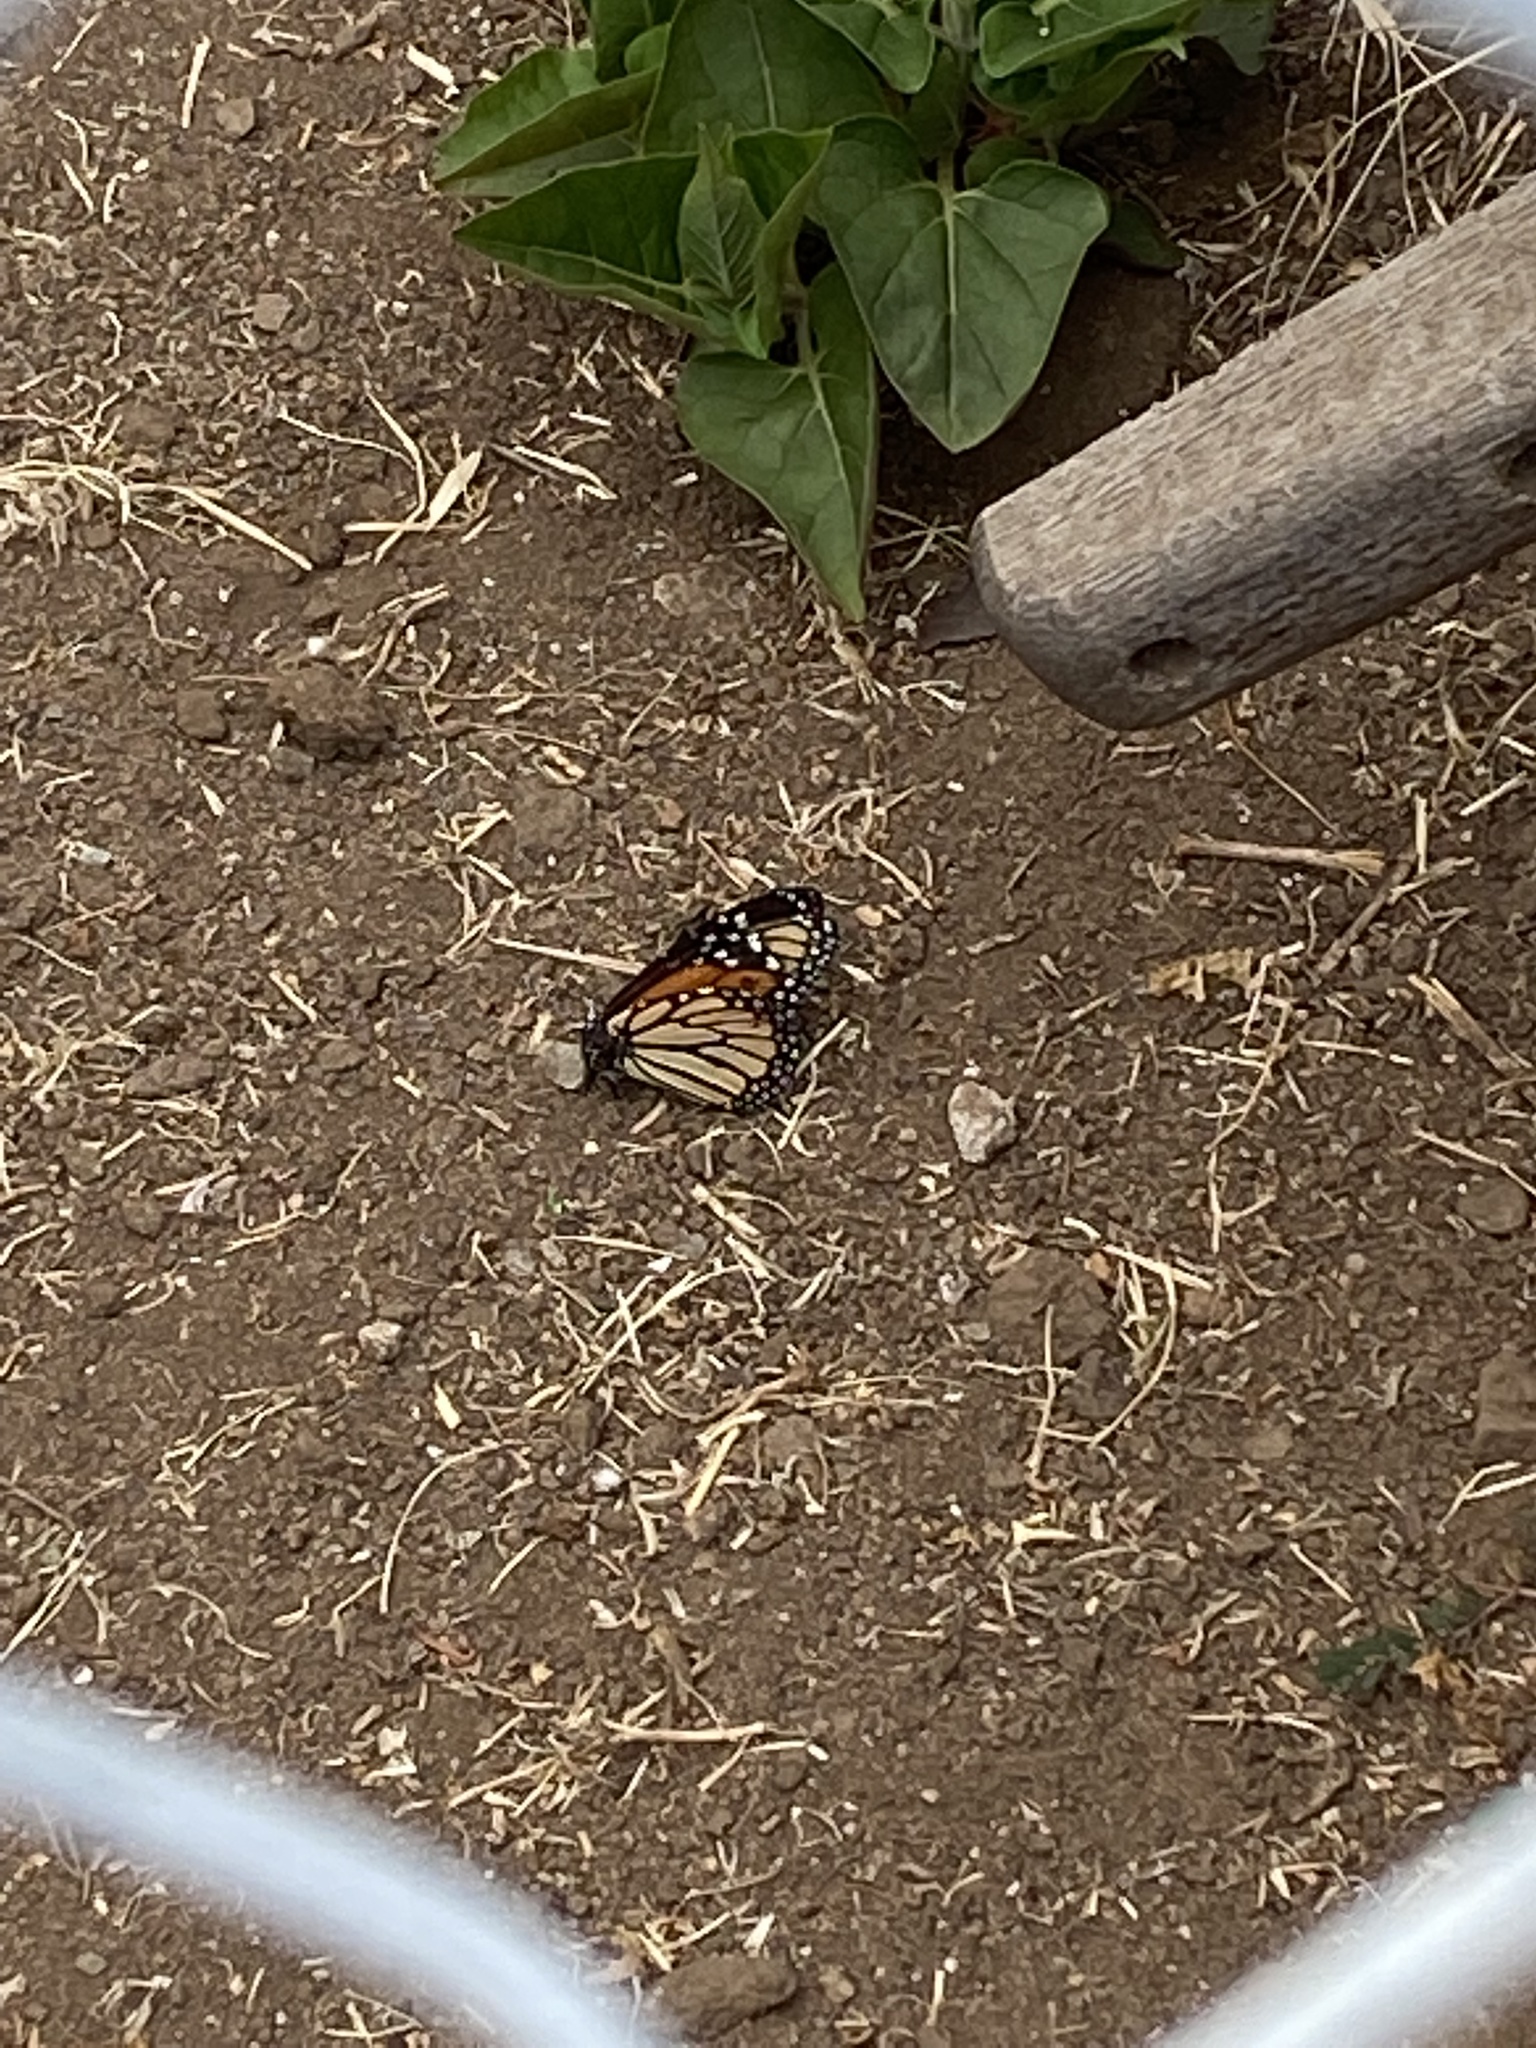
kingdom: Animalia
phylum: Arthropoda
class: Insecta
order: Lepidoptera
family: Nymphalidae
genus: Danaus
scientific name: Danaus plexippus
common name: Monarch
